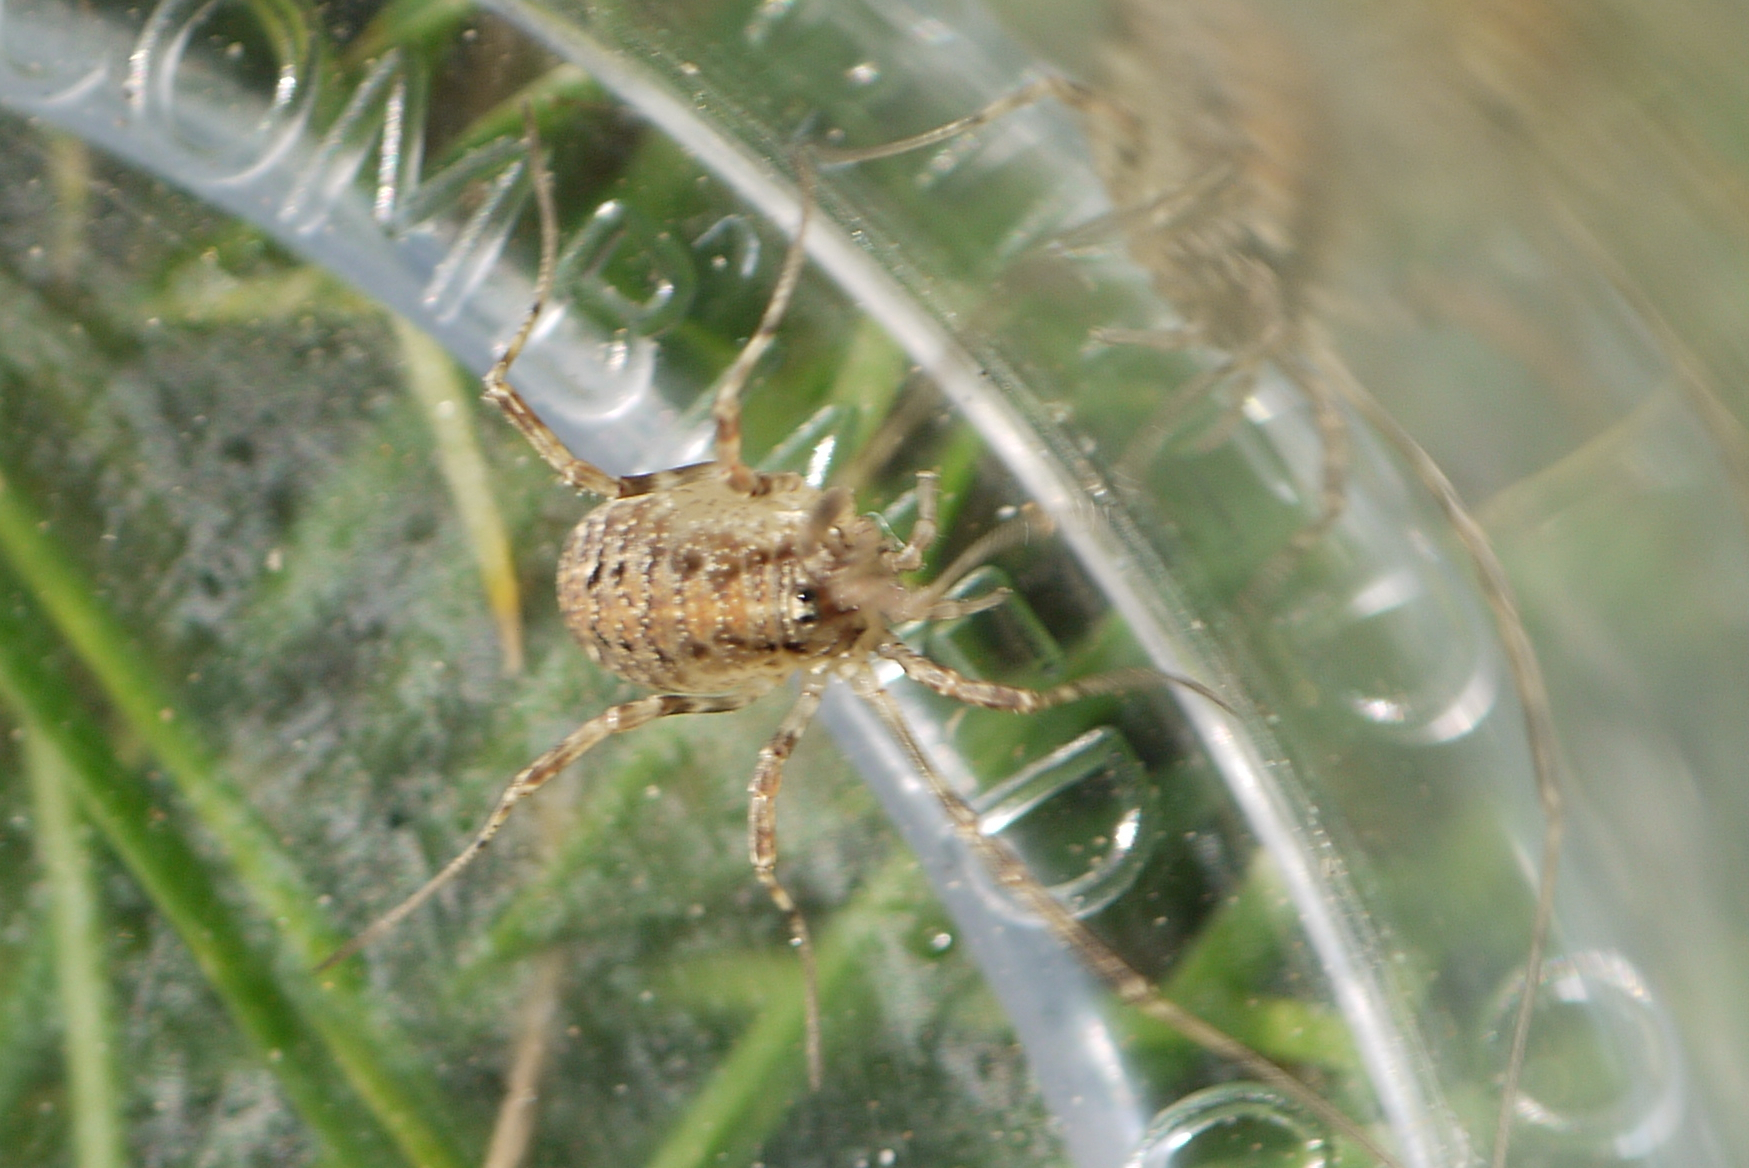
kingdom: Animalia
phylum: Arthropoda
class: Arachnida
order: Opiliones
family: Phalangiidae
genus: Paroligolophus
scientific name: Paroligolophus agrestis
